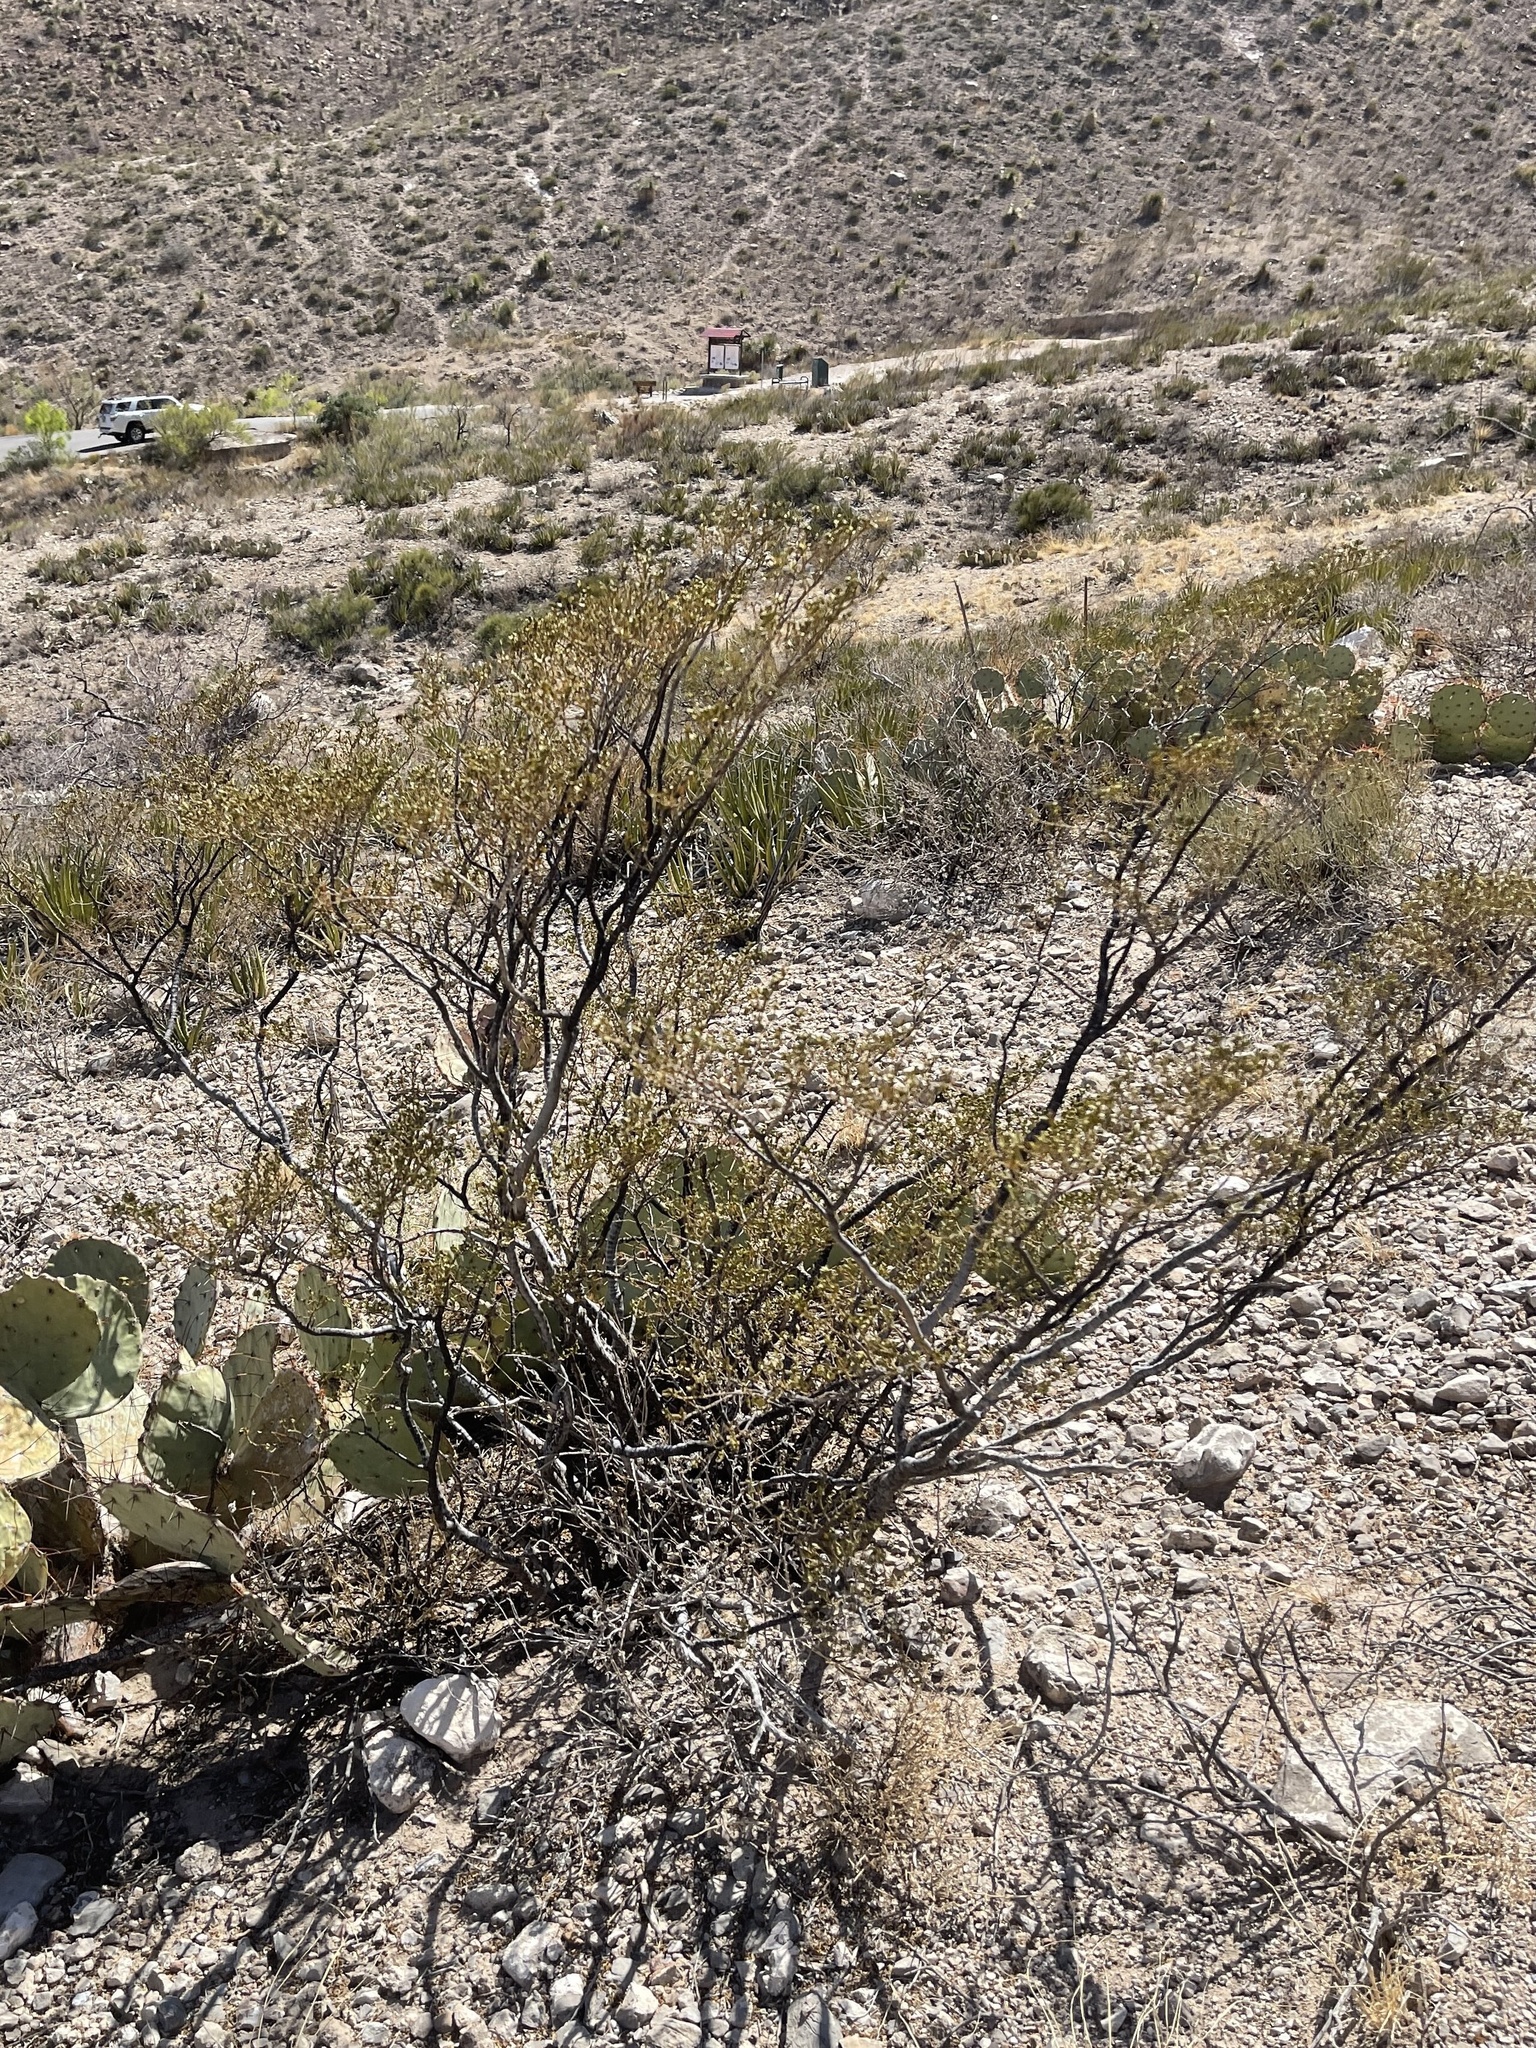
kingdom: Plantae
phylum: Tracheophyta
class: Magnoliopsida
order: Zygophyllales
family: Zygophyllaceae
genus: Larrea
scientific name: Larrea tridentata
